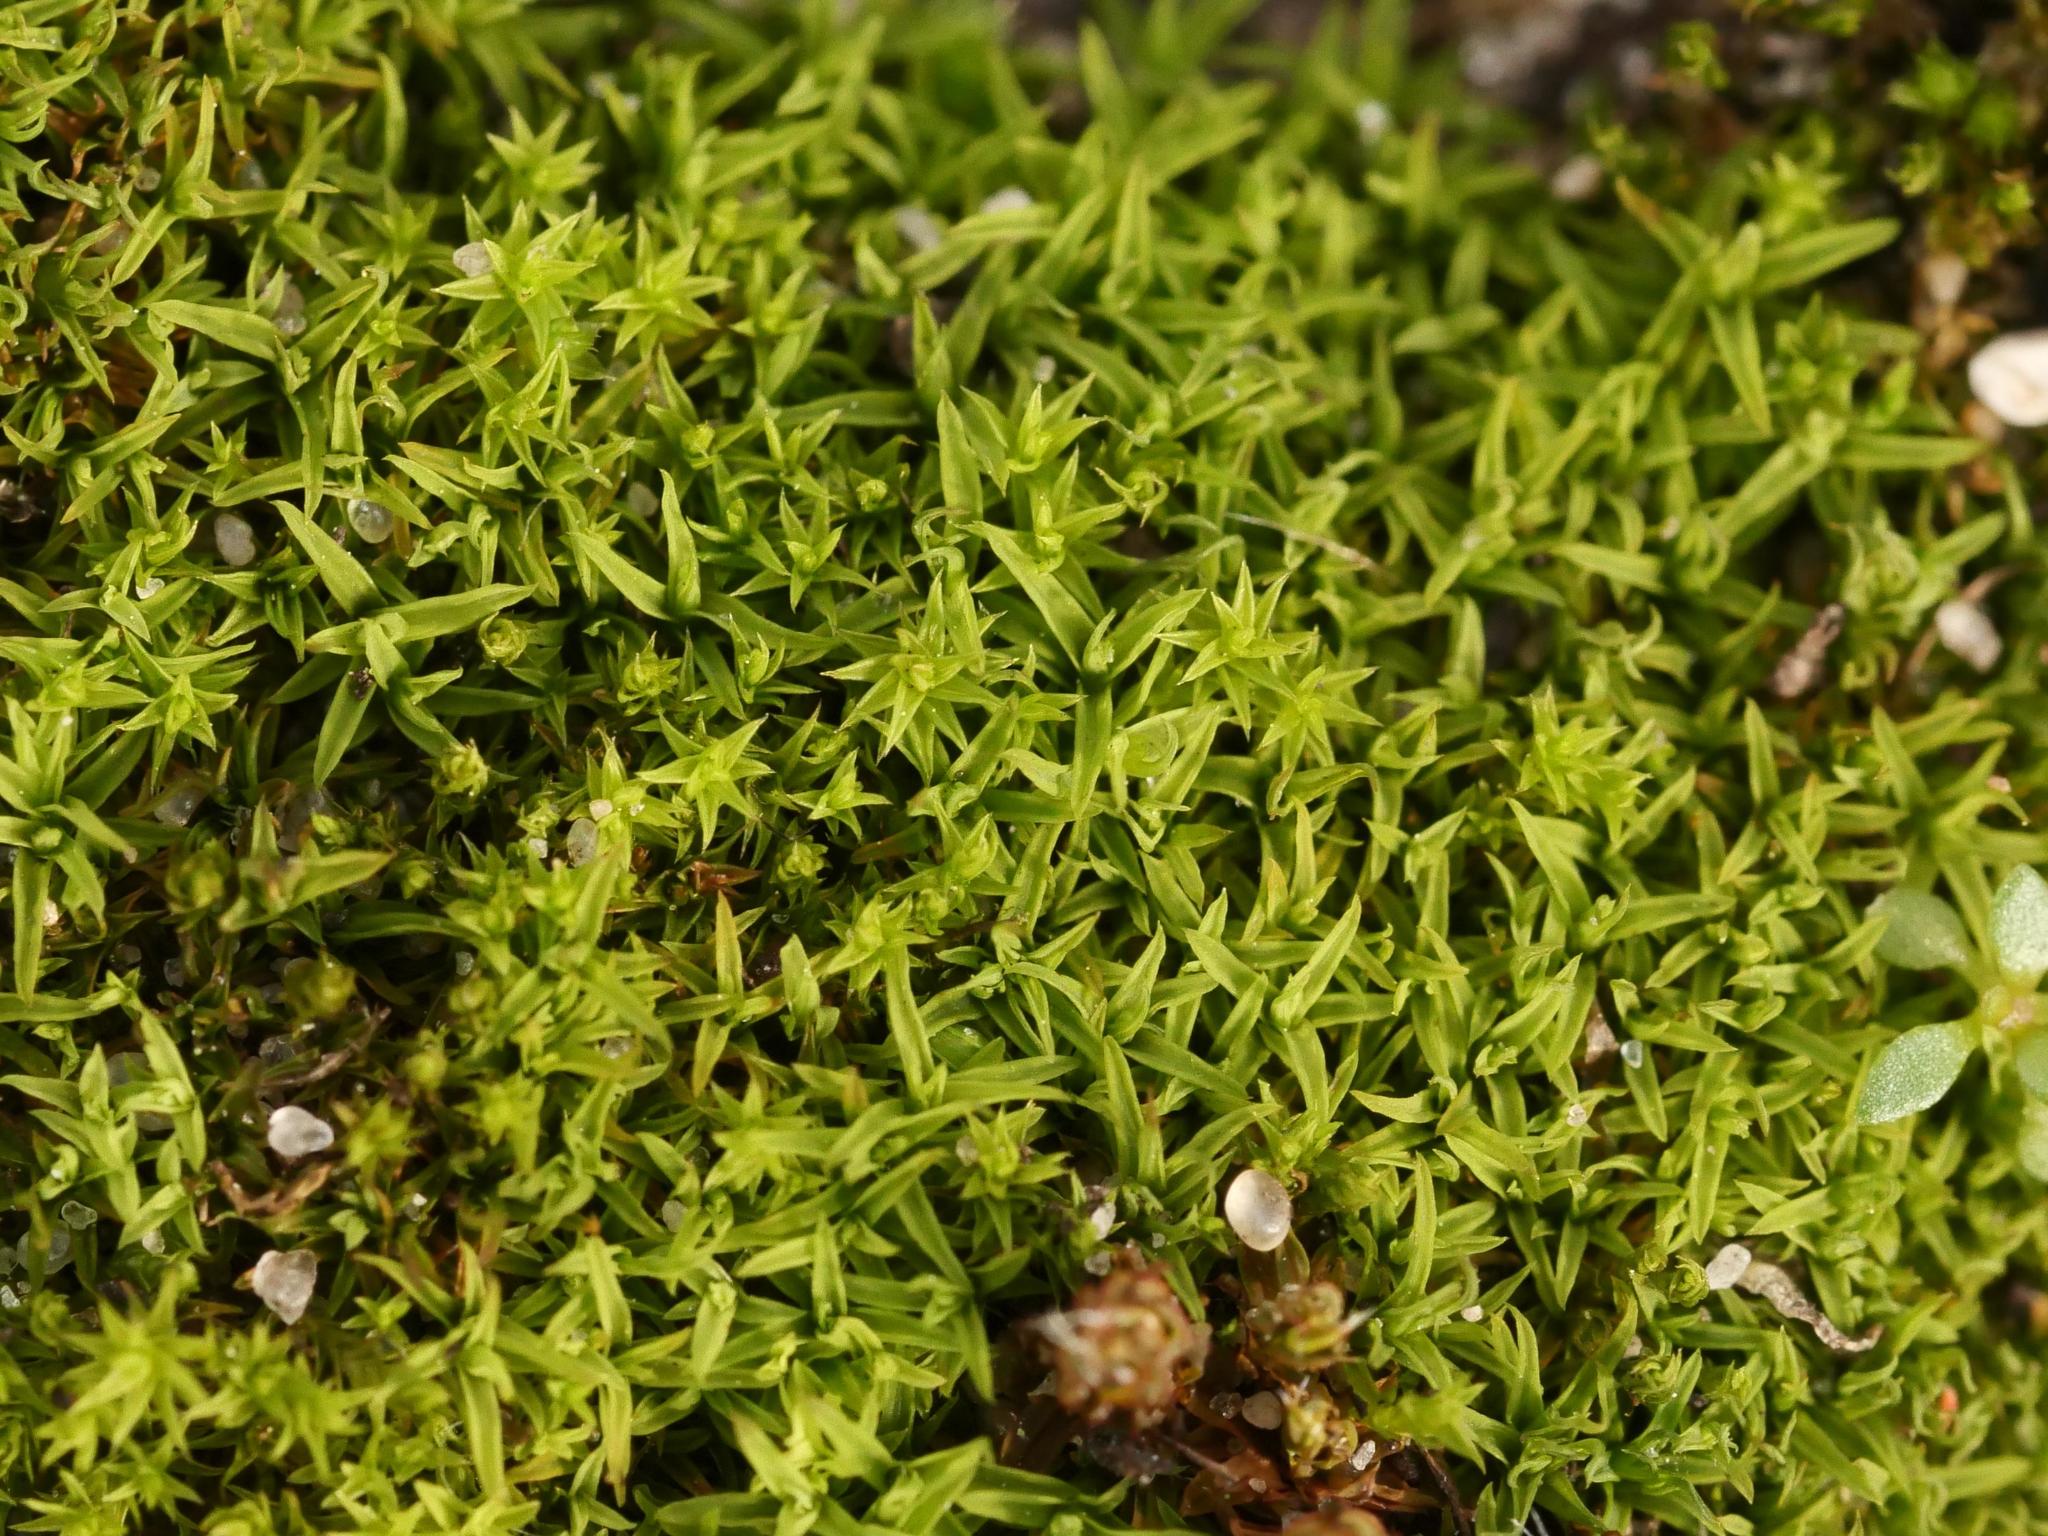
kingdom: Plantae
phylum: Bryophyta
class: Bryopsida
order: Pottiales
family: Pottiaceae
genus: Barbula
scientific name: Barbula unguiculata
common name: Prickly beard moss
